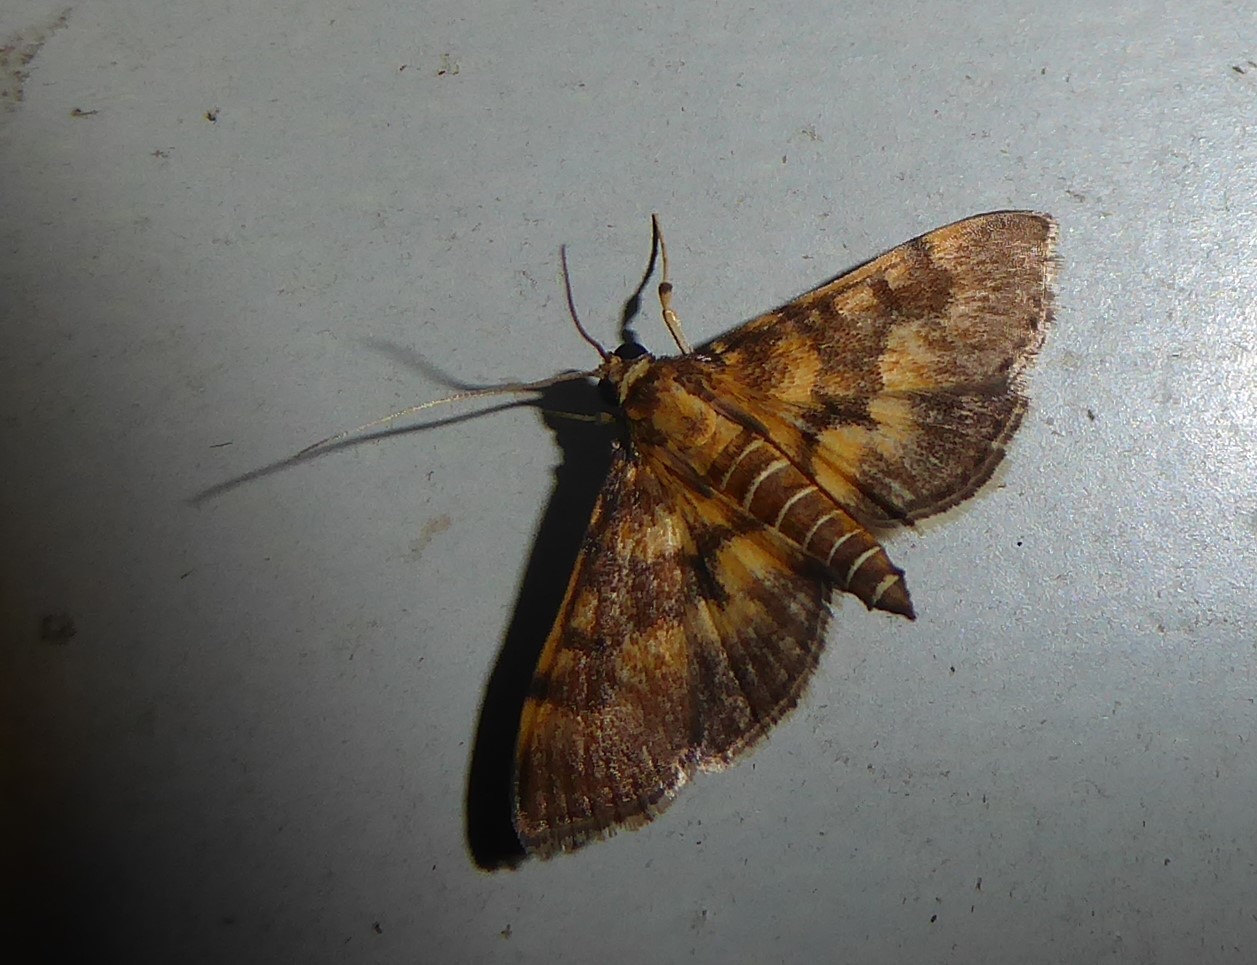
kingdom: Animalia
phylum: Arthropoda
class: Insecta
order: Lepidoptera
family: Crambidae
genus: Omiodes
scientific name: Omiodes diemenalis
